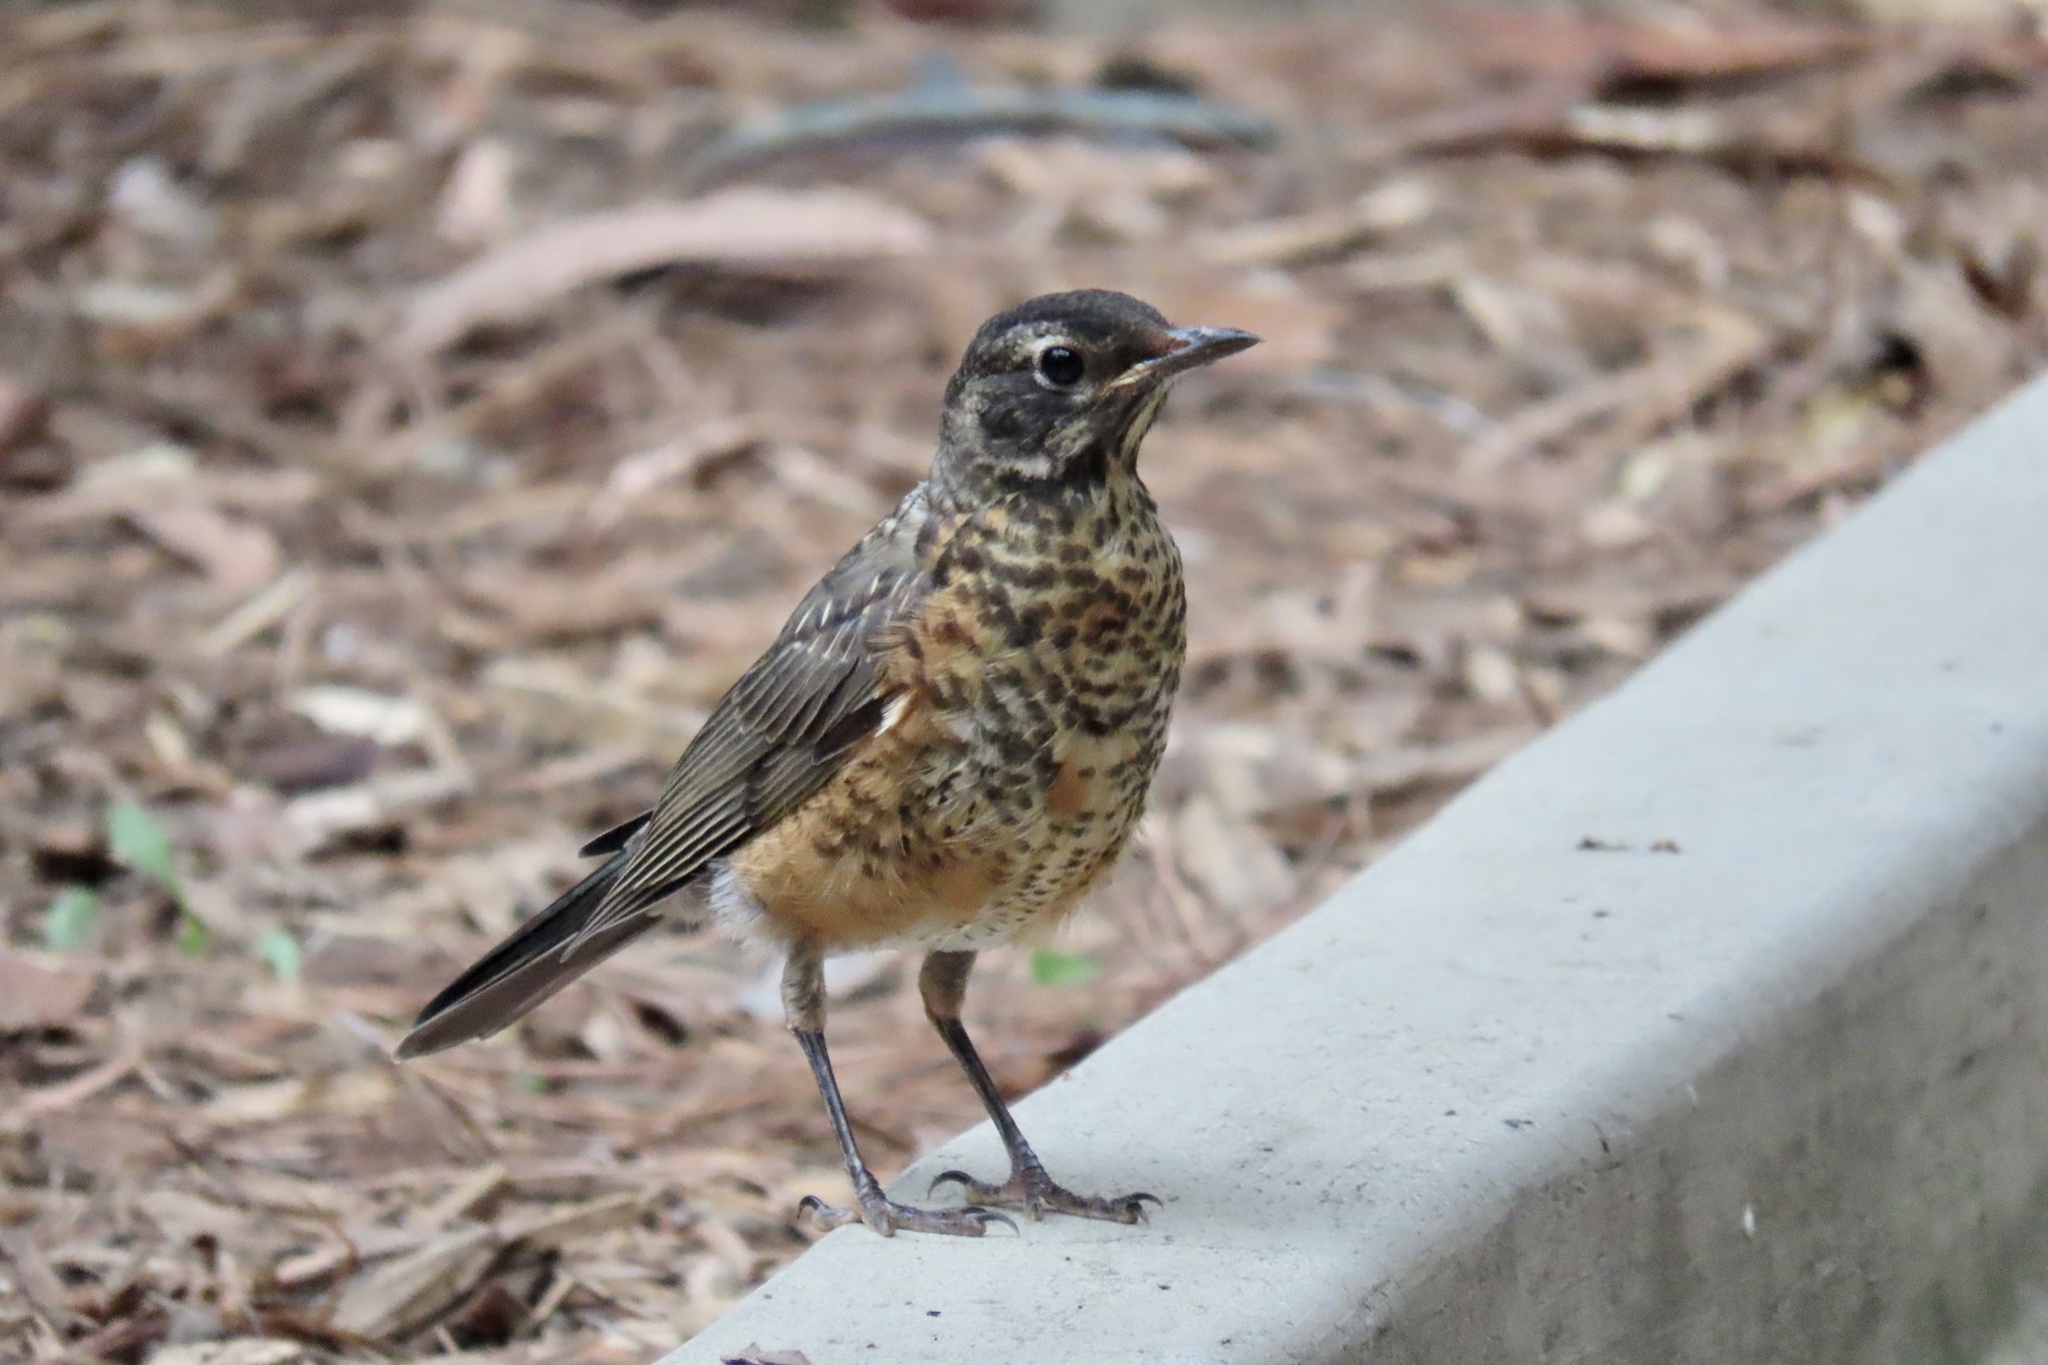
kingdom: Animalia
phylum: Chordata
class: Aves
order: Passeriformes
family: Turdidae
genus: Turdus
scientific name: Turdus migratorius
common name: American robin
